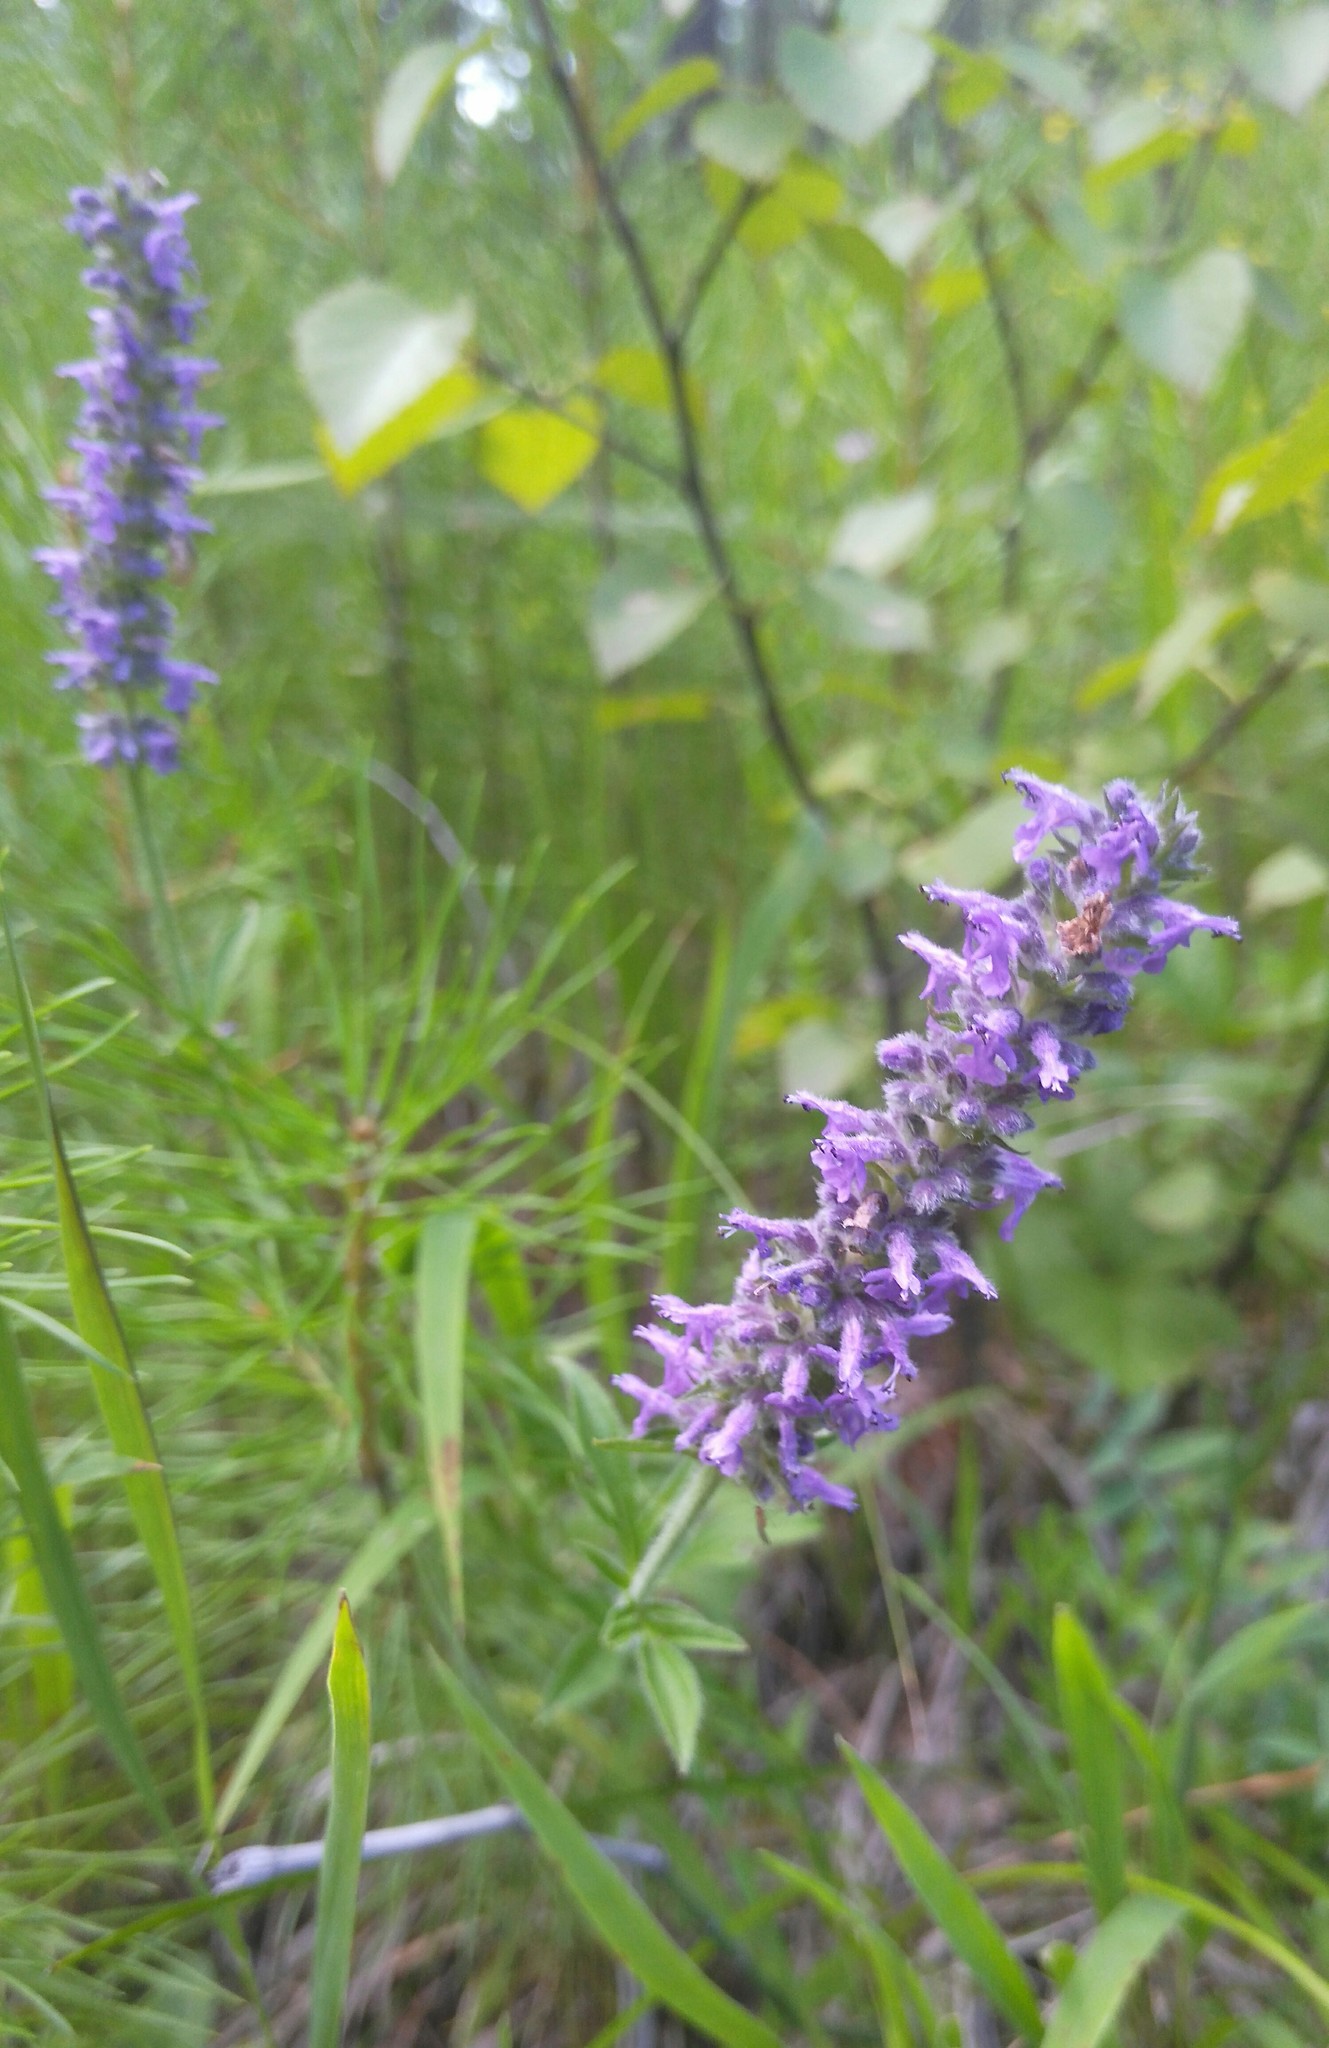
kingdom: Plantae
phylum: Tracheophyta
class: Magnoliopsida
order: Lamiales
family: Lamiaceae
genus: Nepeta
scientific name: Nepeta multifida
